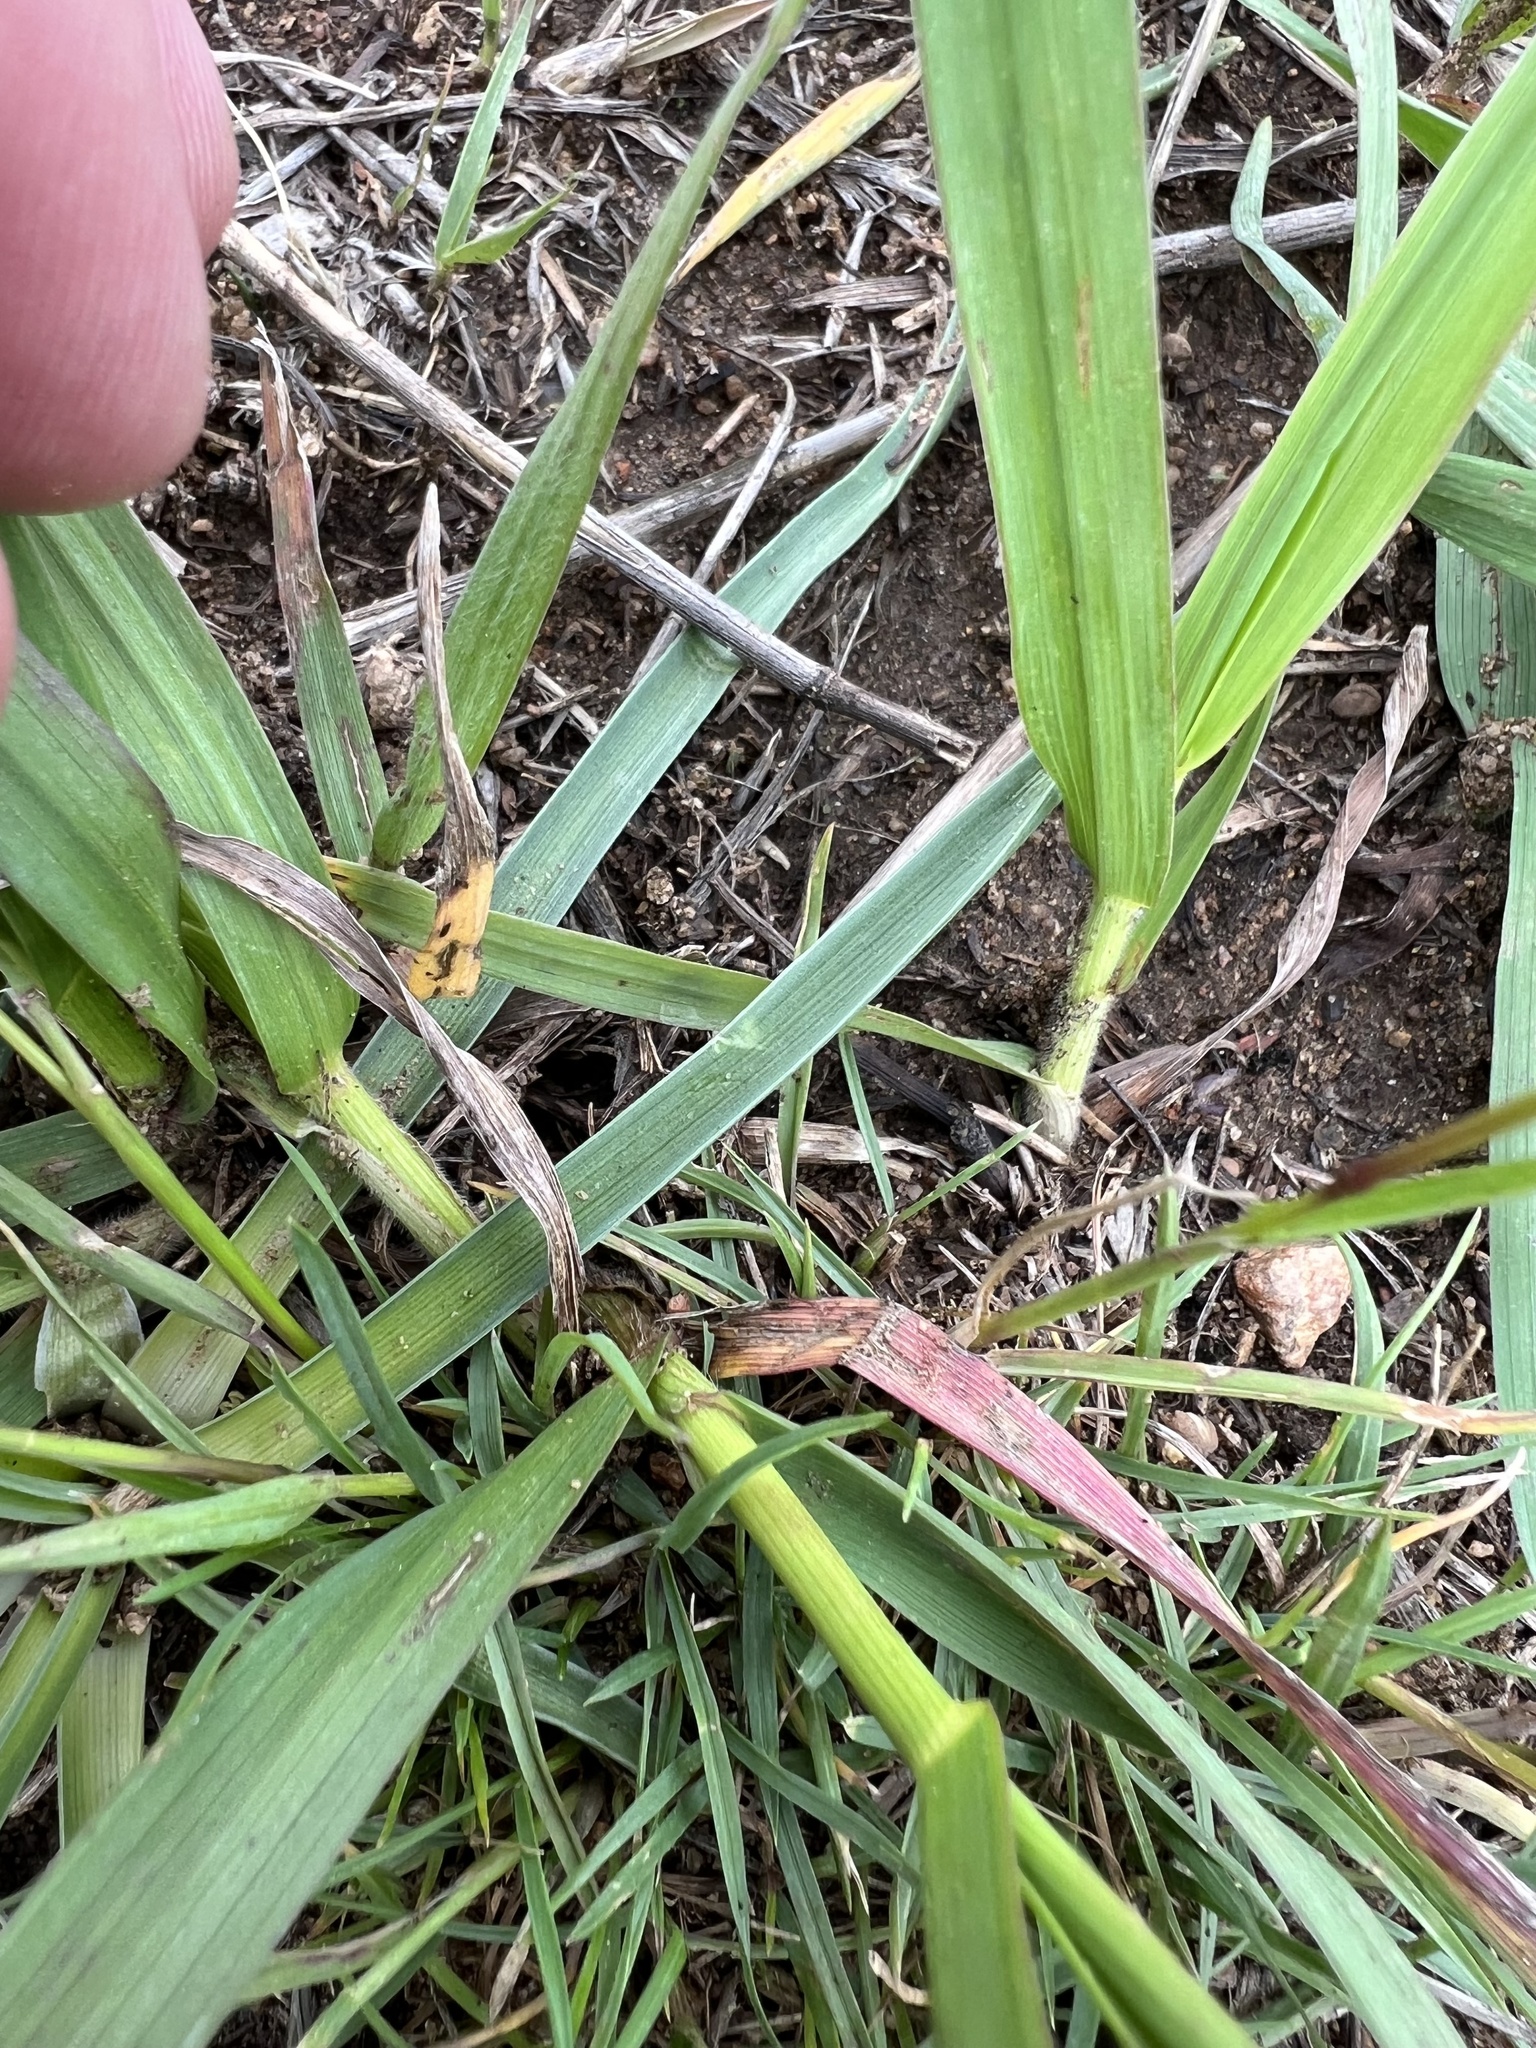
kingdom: Plantae
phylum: Tracheophyta
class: Liliopsida
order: Asparagales
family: Asparagaceae
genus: Leucocrinum
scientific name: Leucocrinum montanum
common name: Mountain-lily
